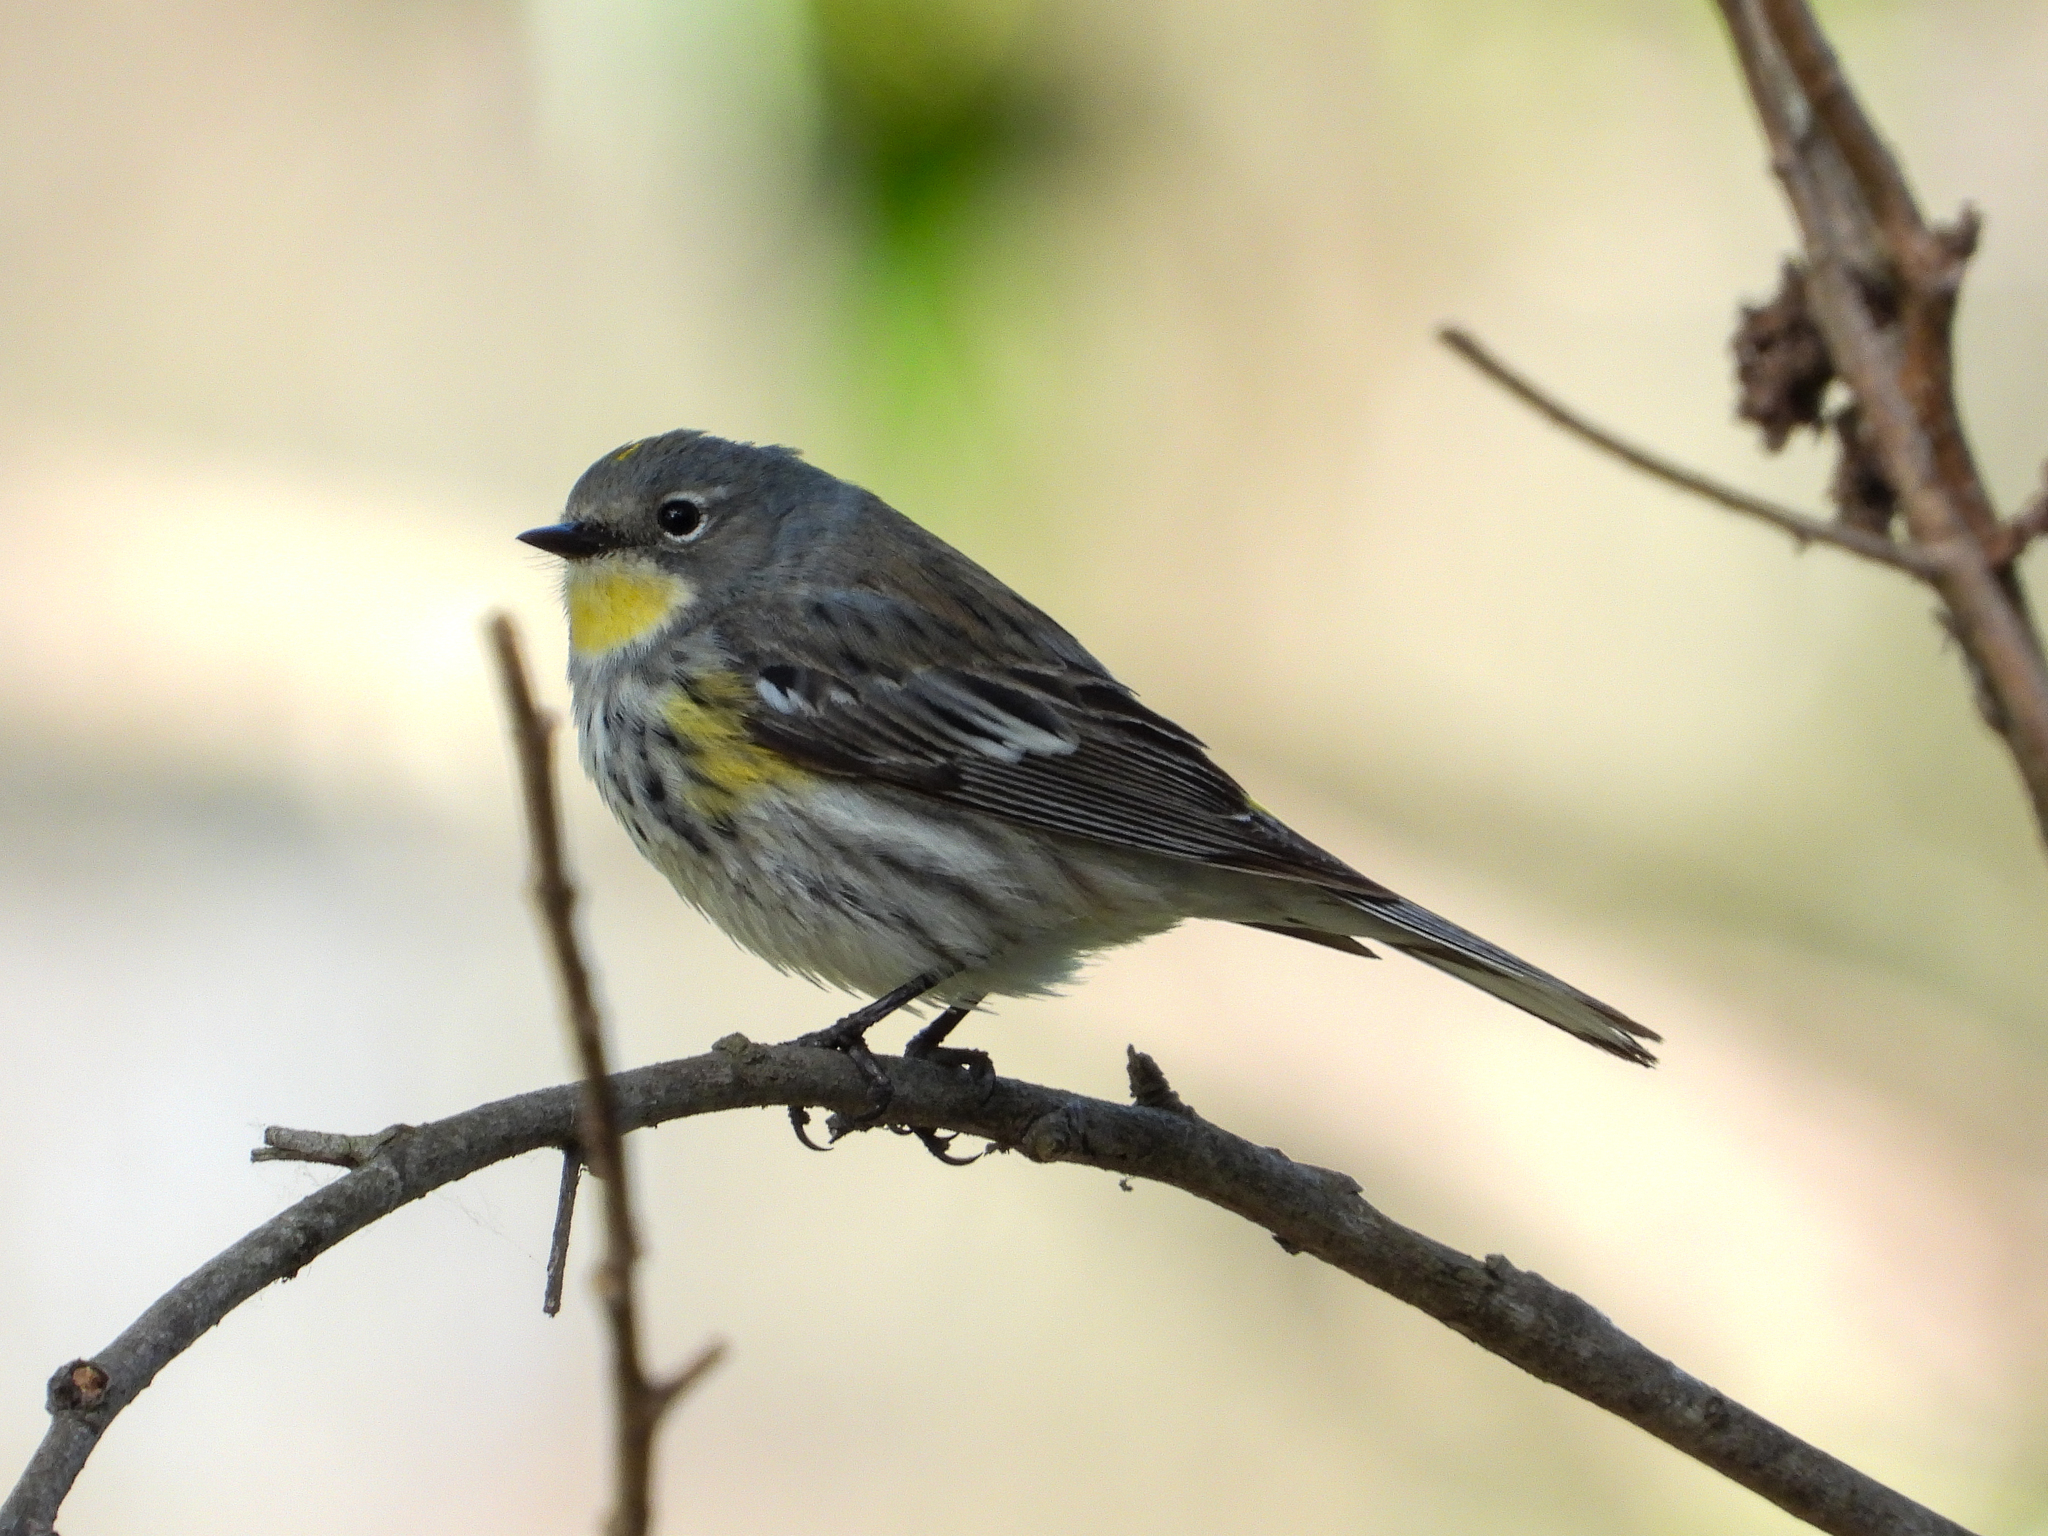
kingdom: Animalia
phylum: Chordata
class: Aves
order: Passeriformes
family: Parulidae
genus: Setophaga
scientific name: Setophaga coronata
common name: Myrtle warbler
